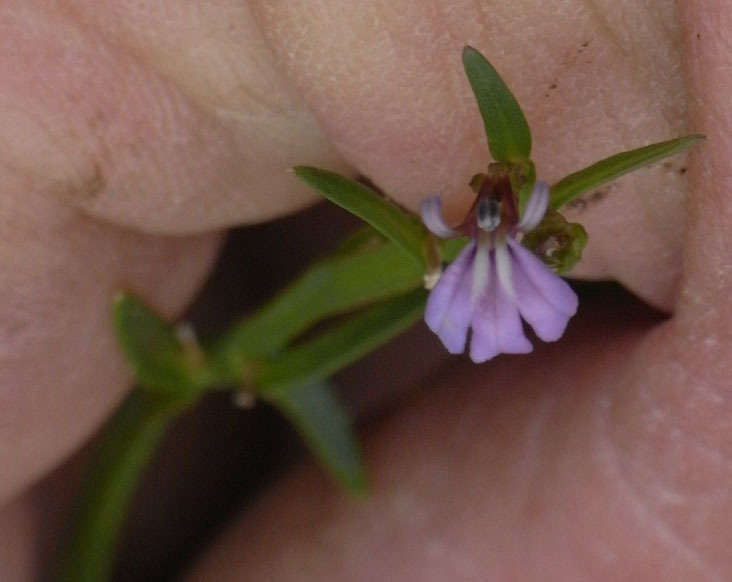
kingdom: Plantae
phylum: Tracheophyta
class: Magnoliopsida
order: Asterales
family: Campanulaceae
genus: Lobelia
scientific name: Lobelia anceps
